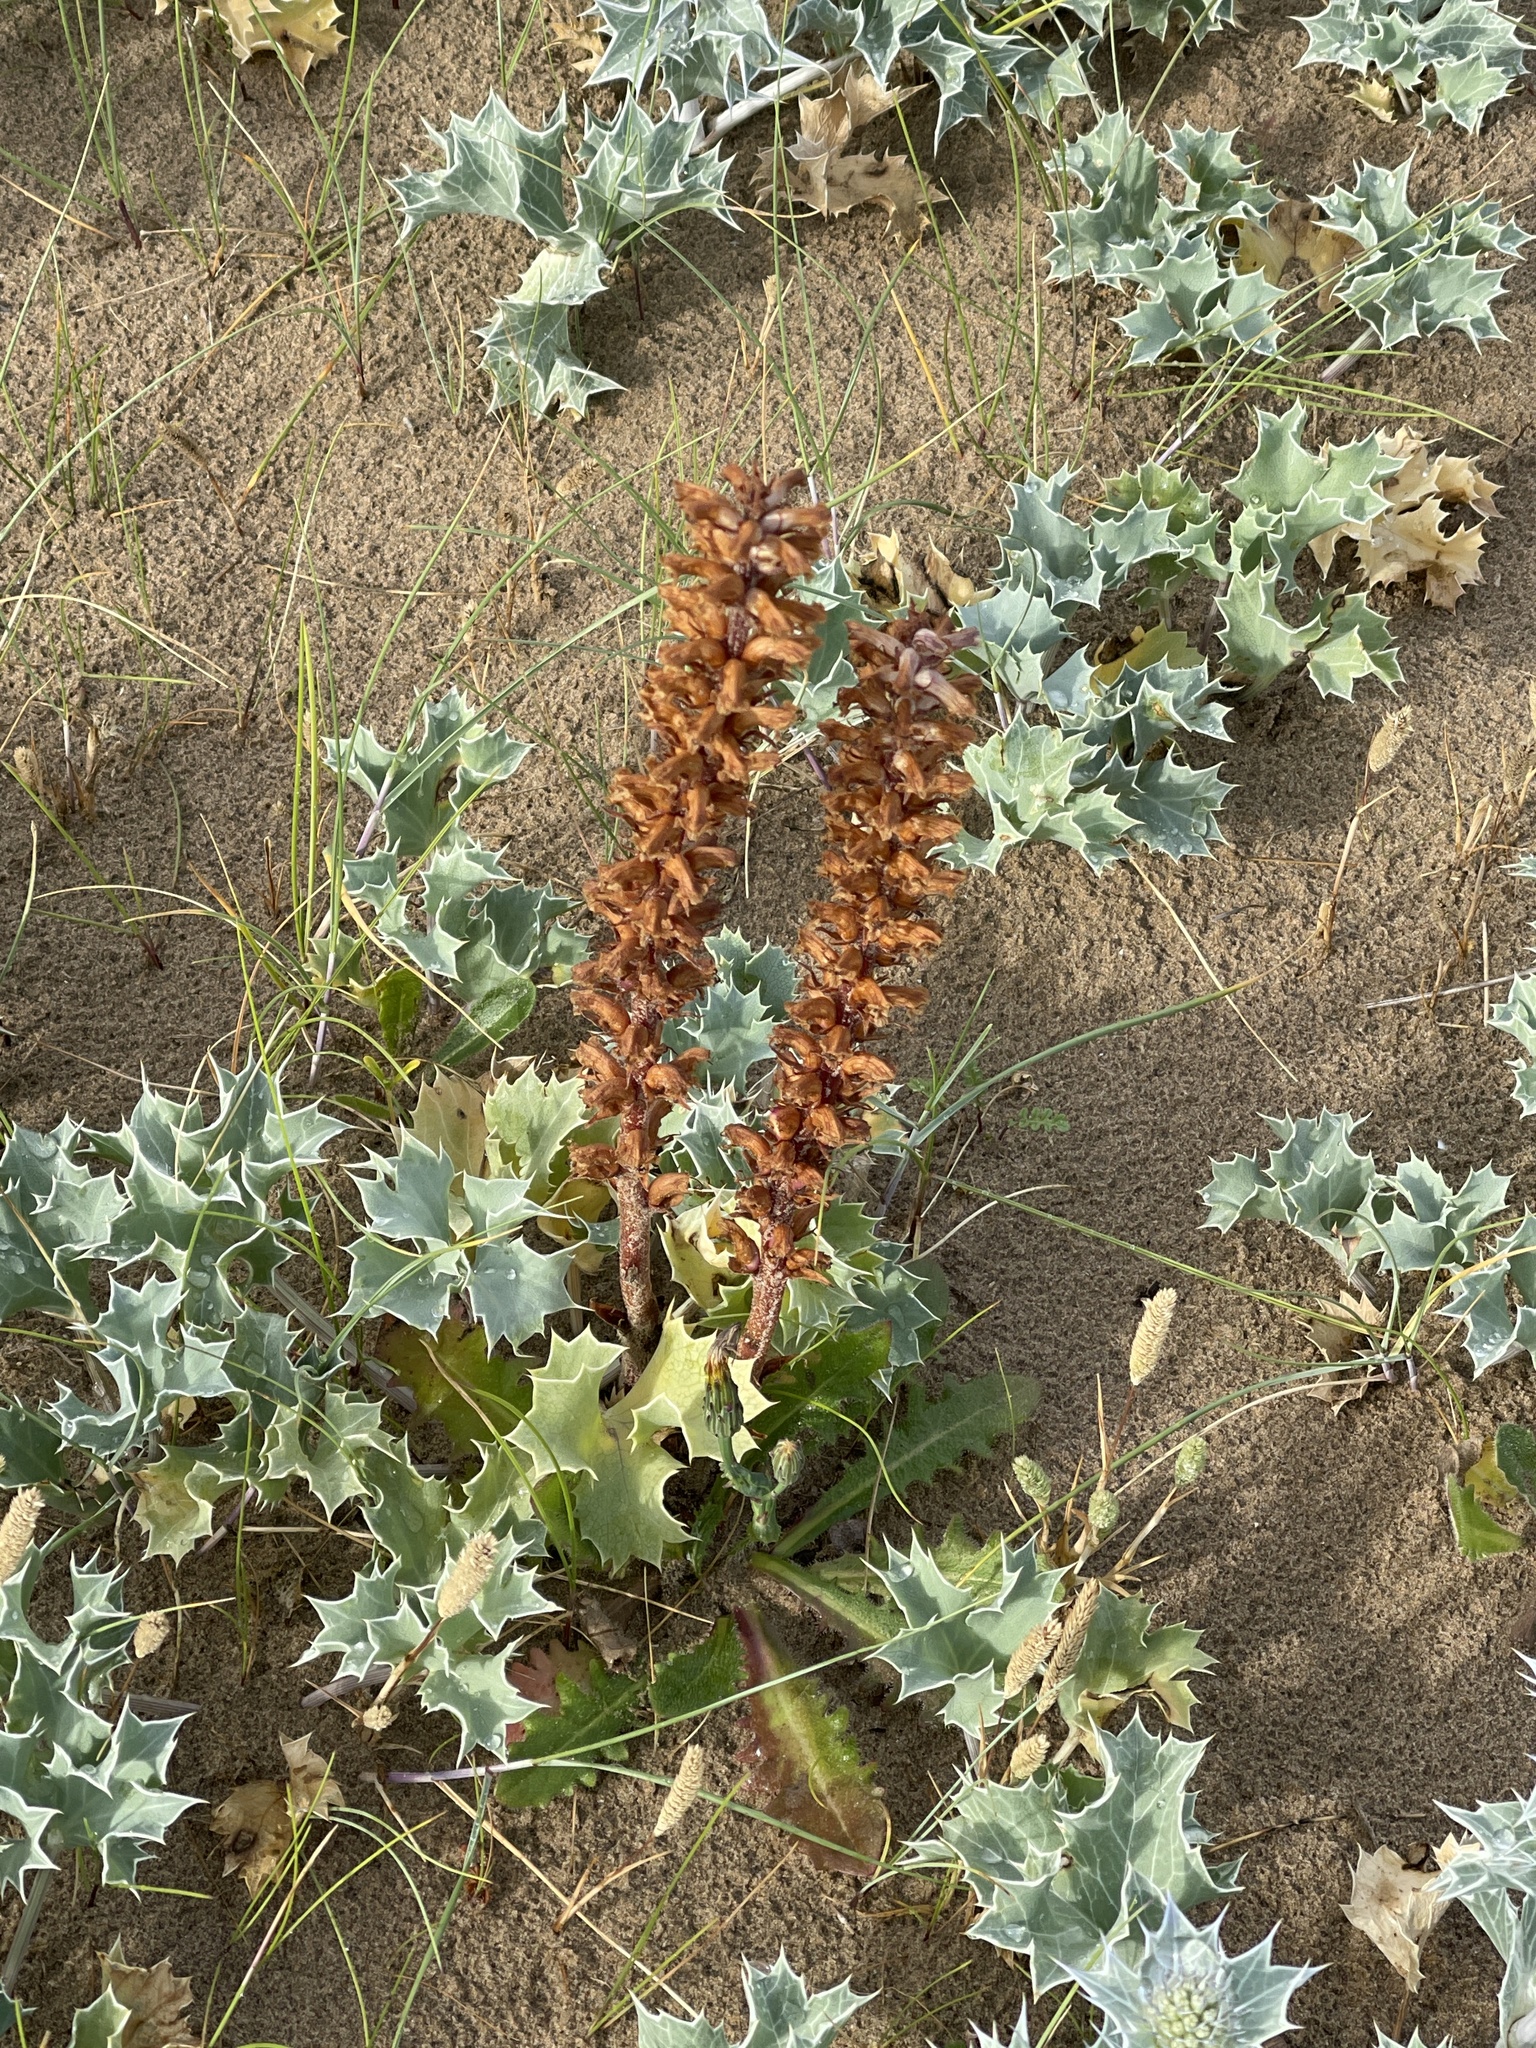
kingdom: Plantae
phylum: Tracheophyta
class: Magnoliopsida
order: Lamiales
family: Orobanchaceae
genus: Orobanche
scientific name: Orobanche minor
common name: Common broomrape
